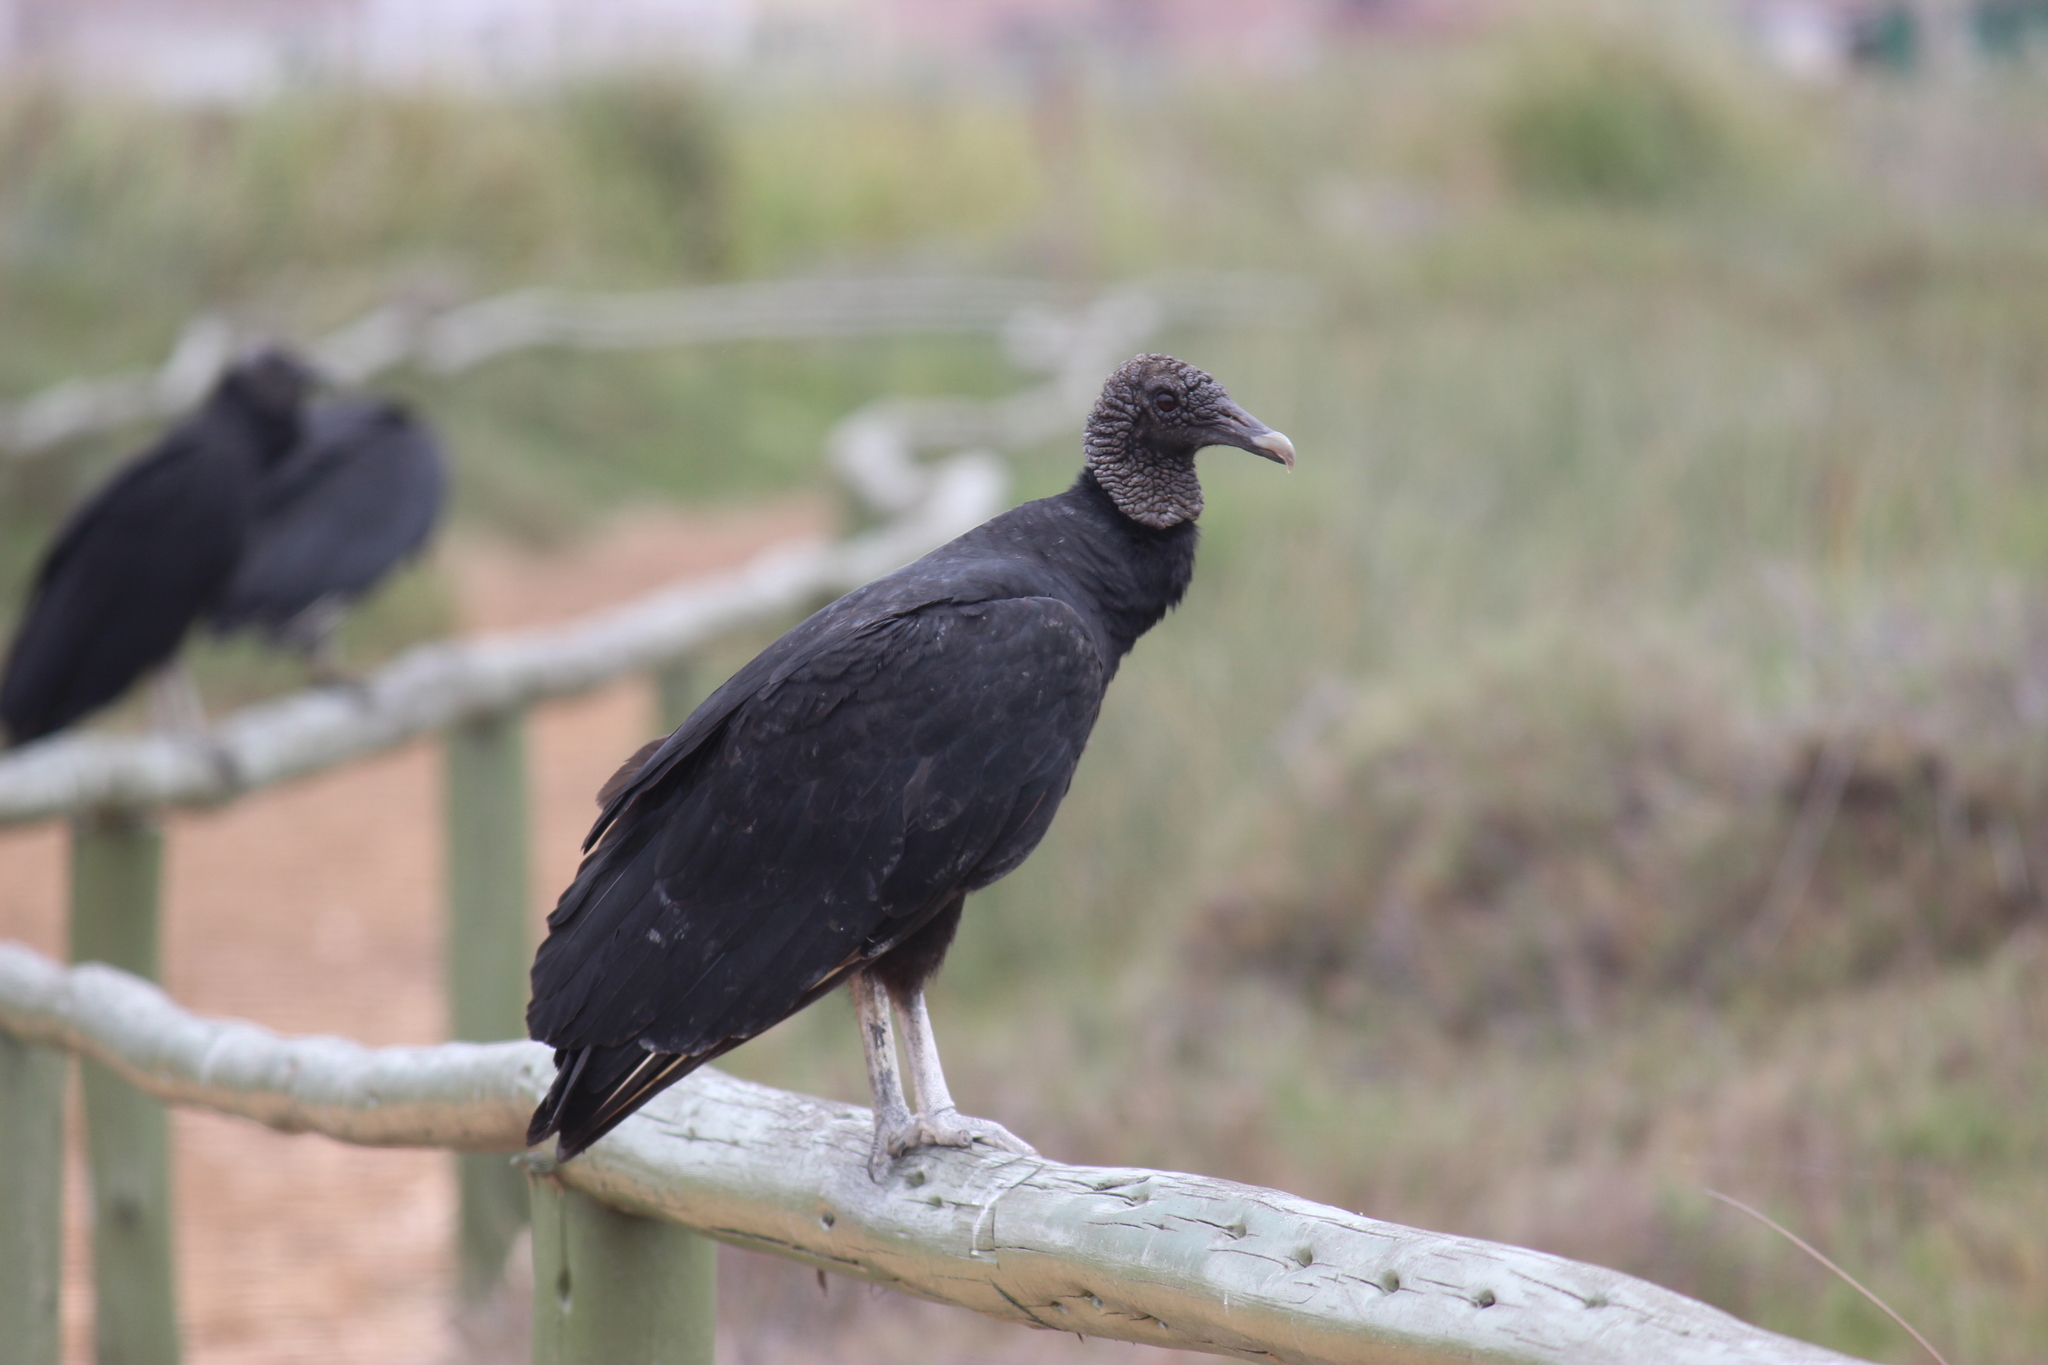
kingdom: Animalia
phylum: Chordata
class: Aves
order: Accipitriformes
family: Cathartidae
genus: Coragyps
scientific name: Coragyps atratus
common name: Black vulture
